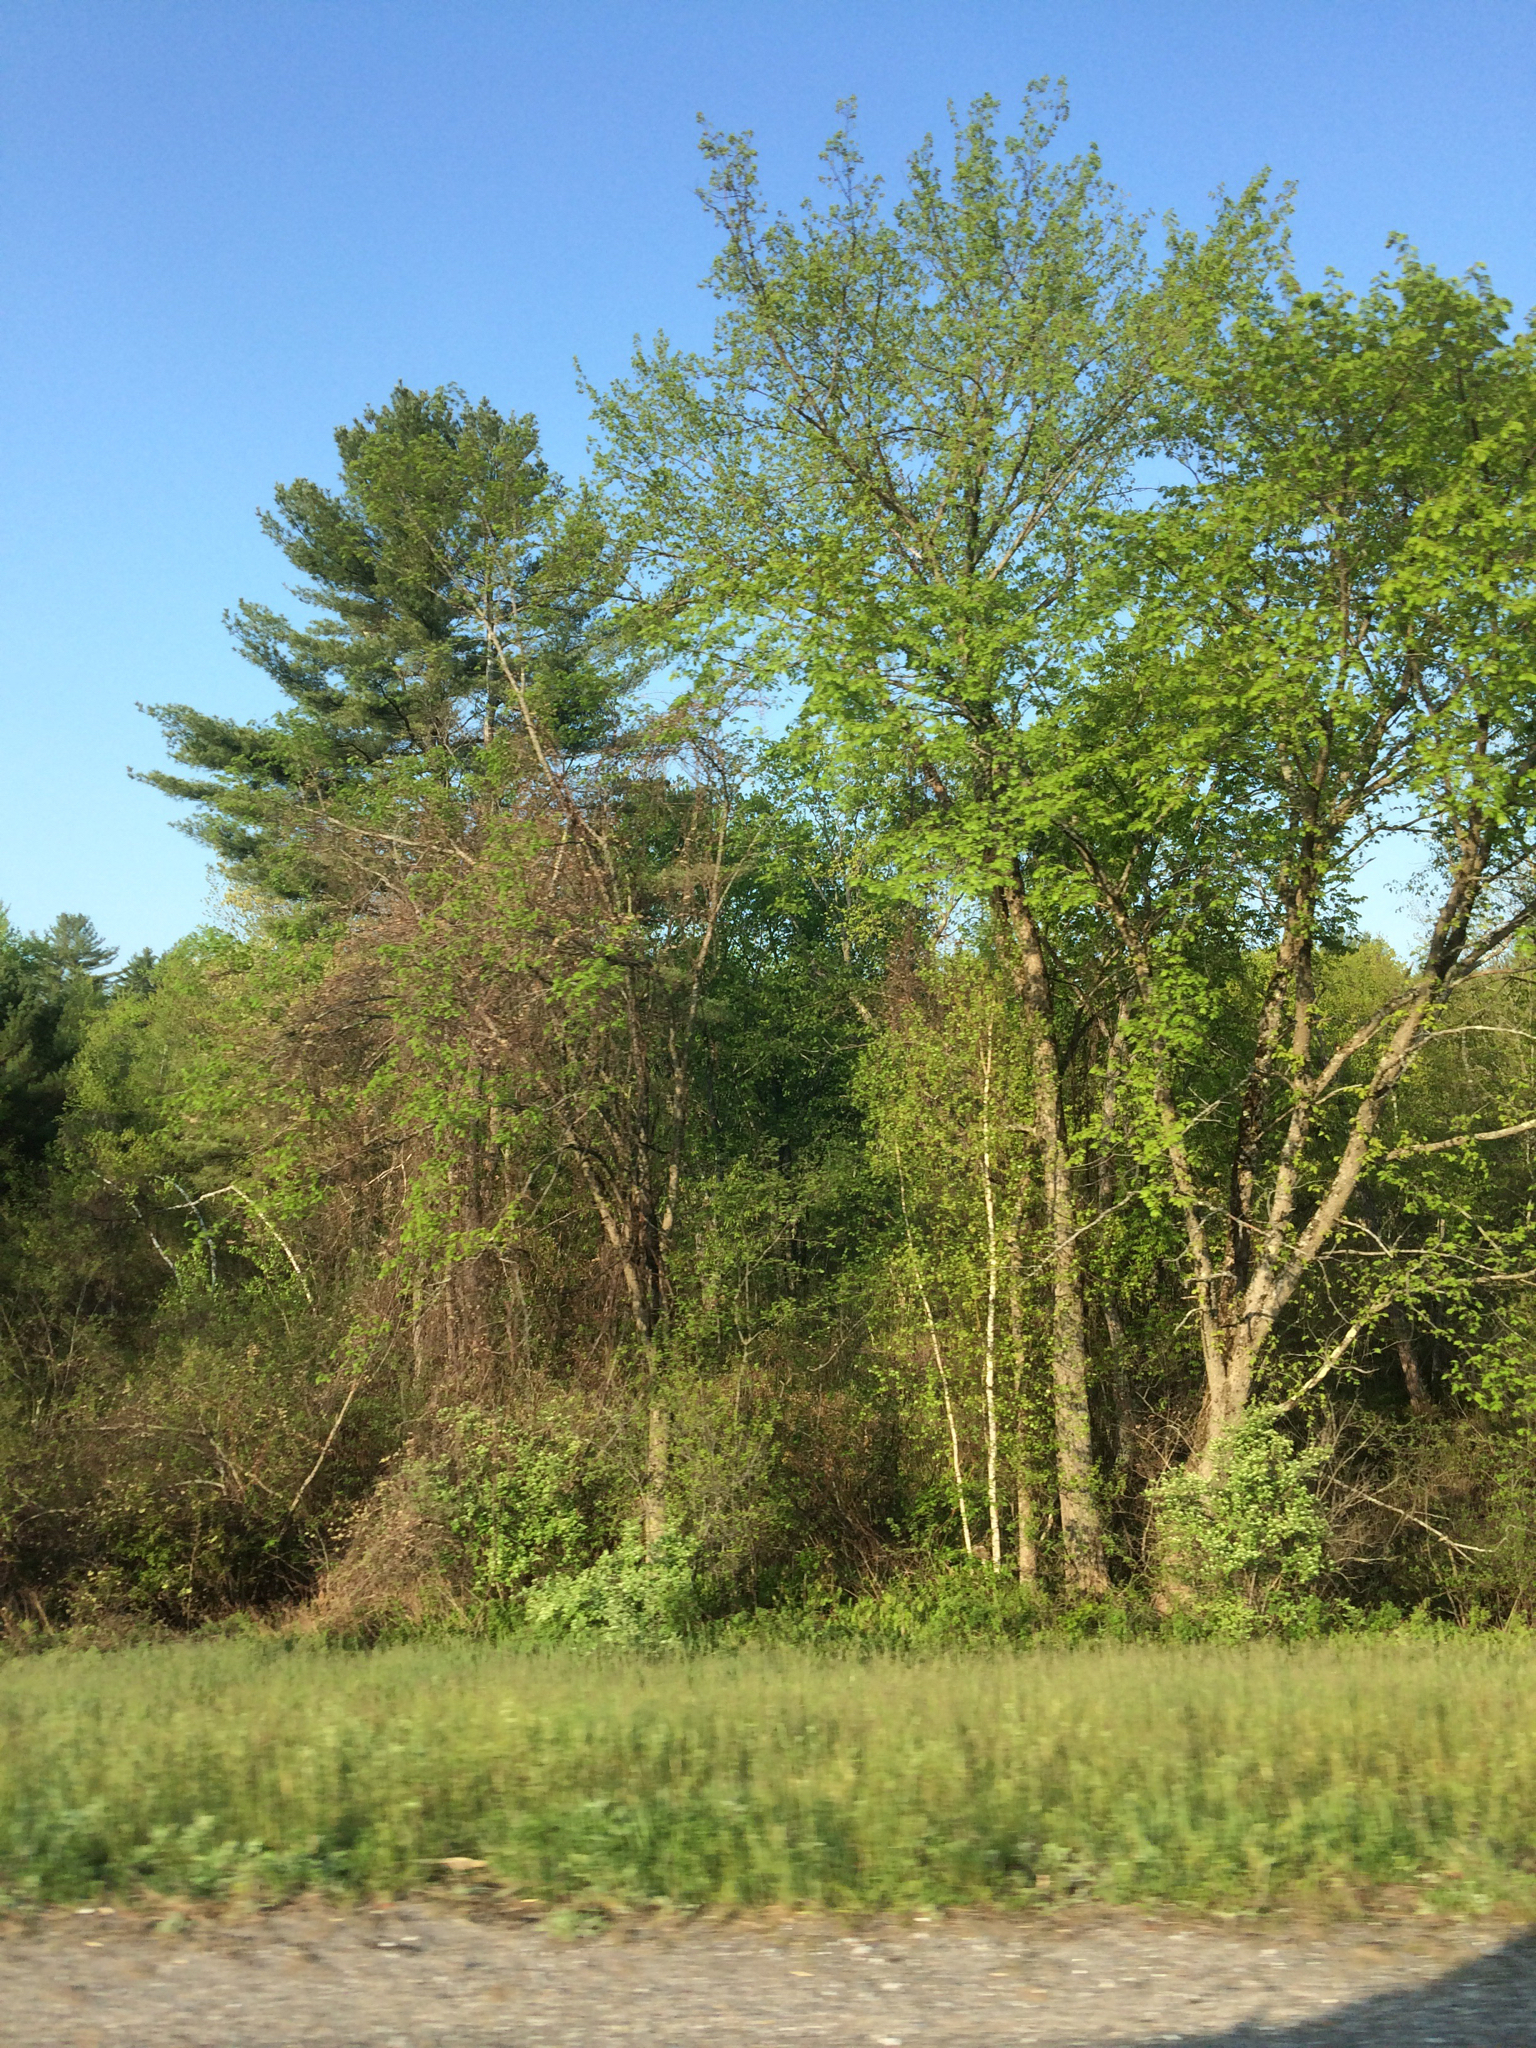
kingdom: Plantae
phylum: Tracheophyta
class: Magnoliopsida
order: Sapindales
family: Sapindaceae
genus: Acer
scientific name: Acer saccharinum
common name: Silver maple
